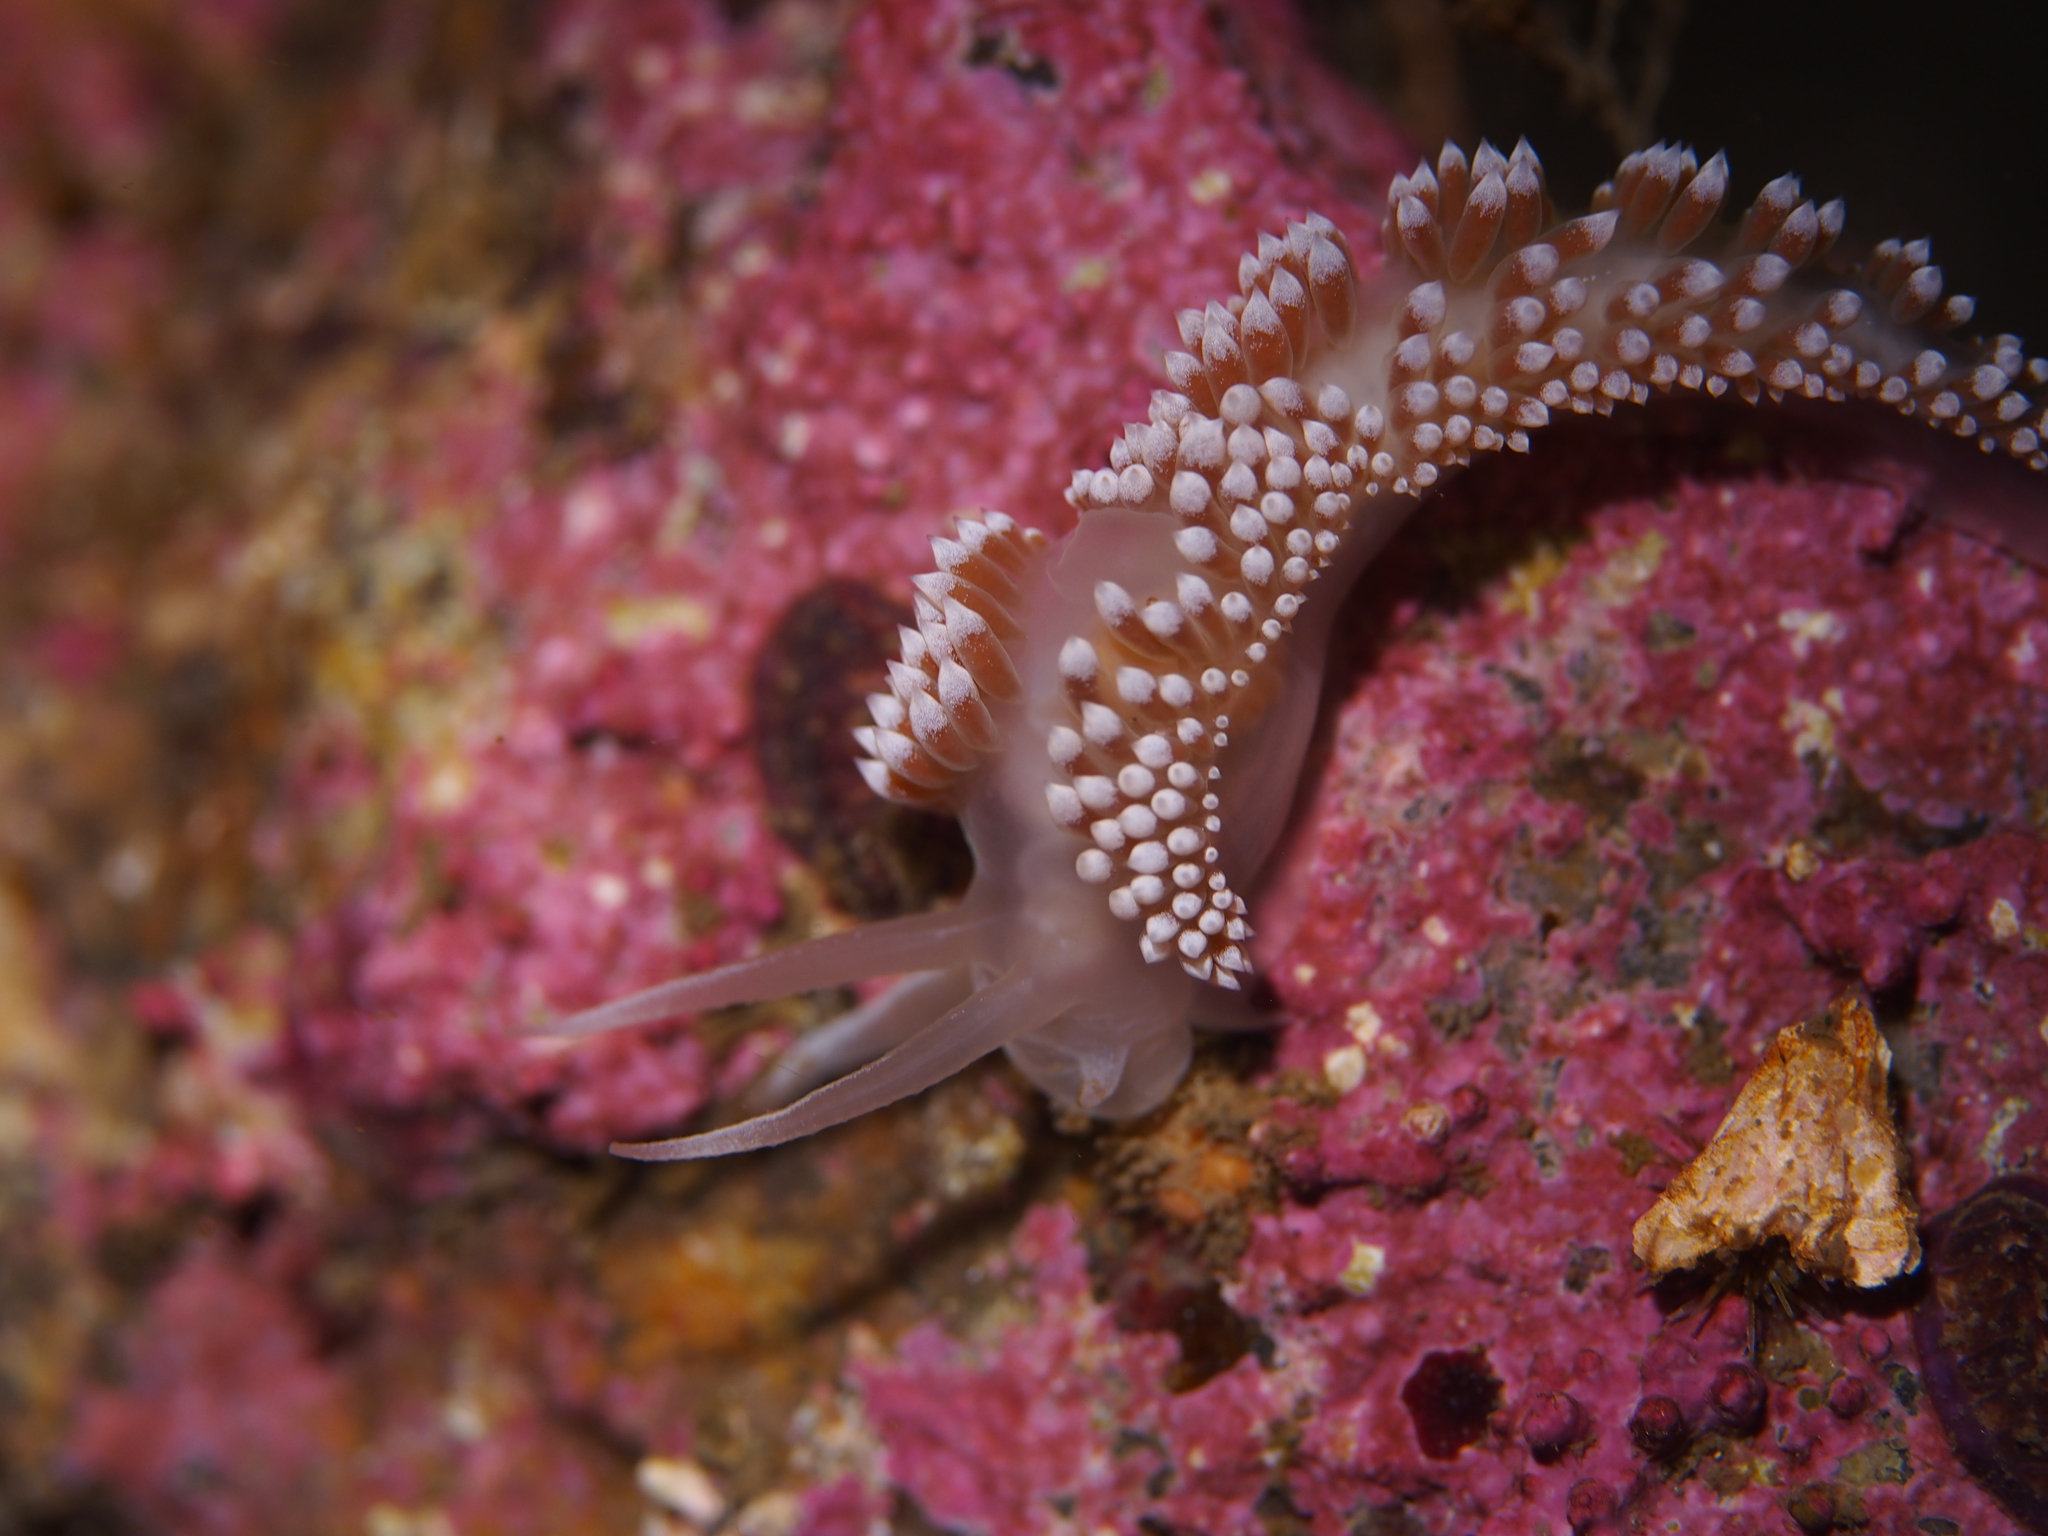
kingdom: Animalia
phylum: Mollusca
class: Gastropoda
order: Nudibranchia
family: Coryphellidae
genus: Coryphella
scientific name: Coryphella verrucosa
